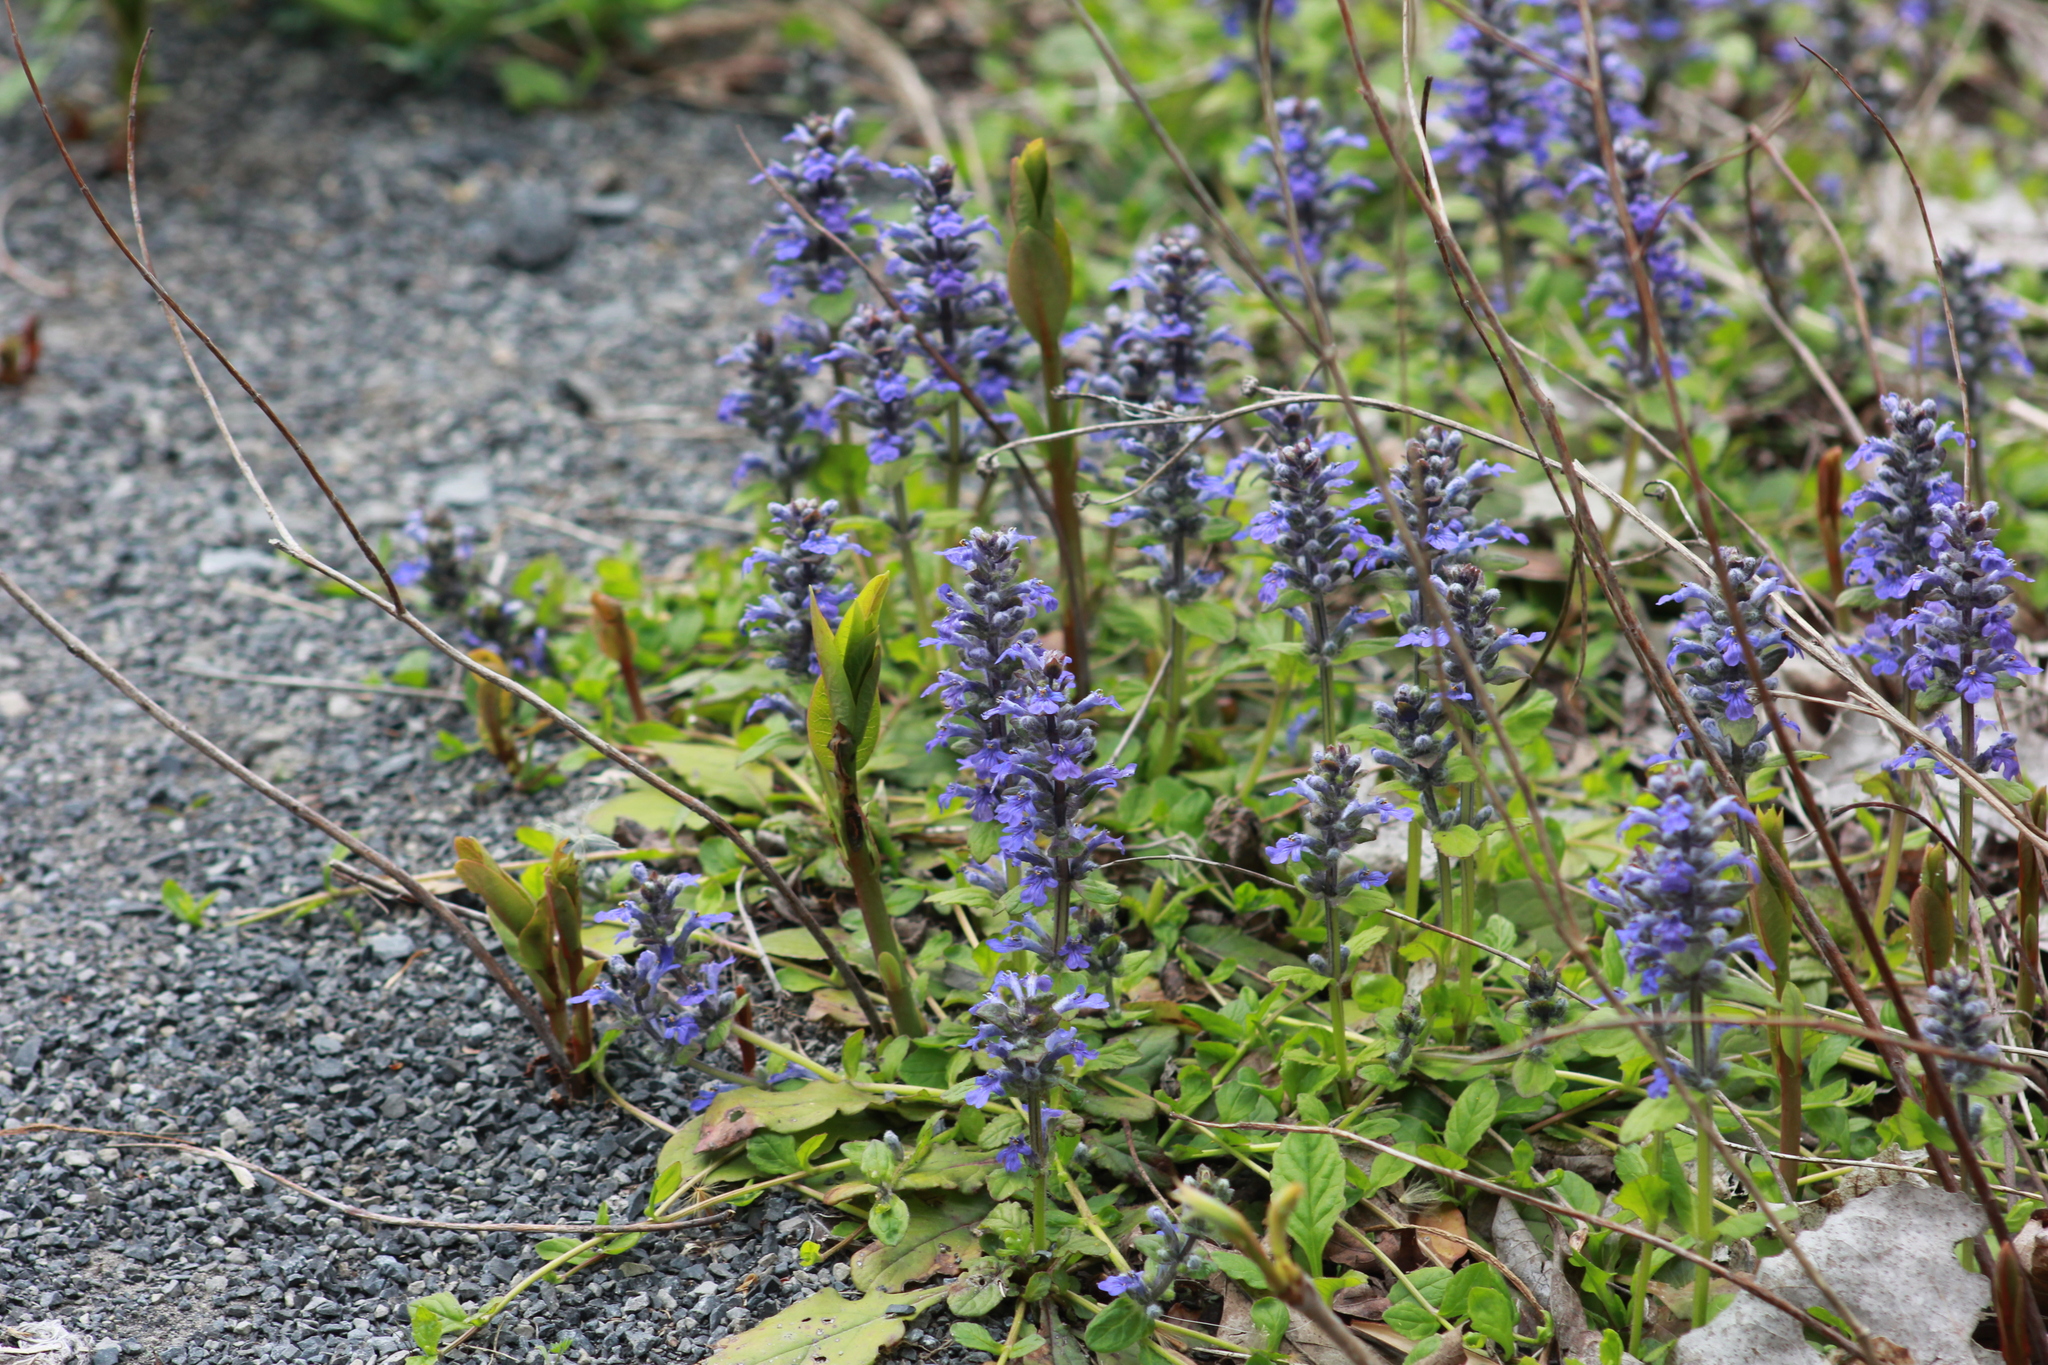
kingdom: Plantae
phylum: Tracheophyta
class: Magnoliopsida
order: Lamiales
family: Lamiaceae
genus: Ajuga
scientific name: Ajuga reptans
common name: Bugle
